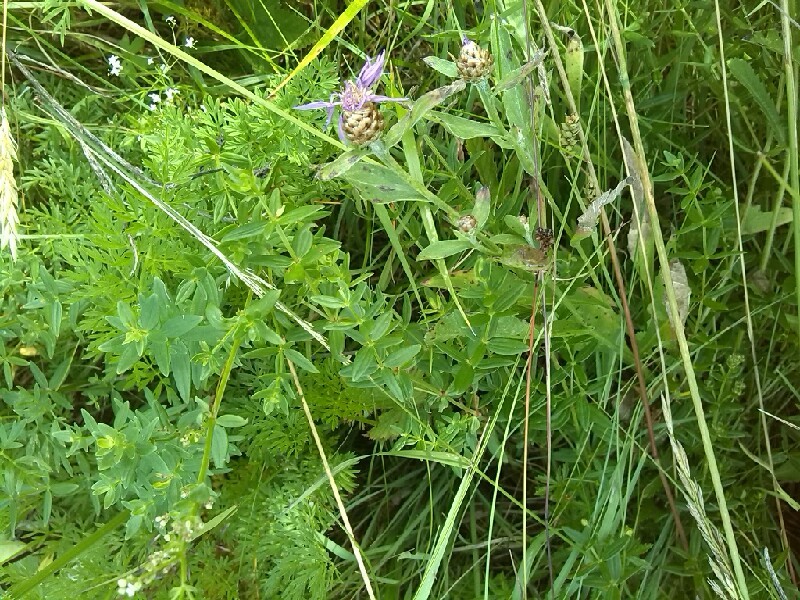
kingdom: Plantae
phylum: Tracheophyta
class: Magnoliopsida
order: Gentianales
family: Rubiaceae
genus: Galium
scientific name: Galium boreale
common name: Northern bedstraw
